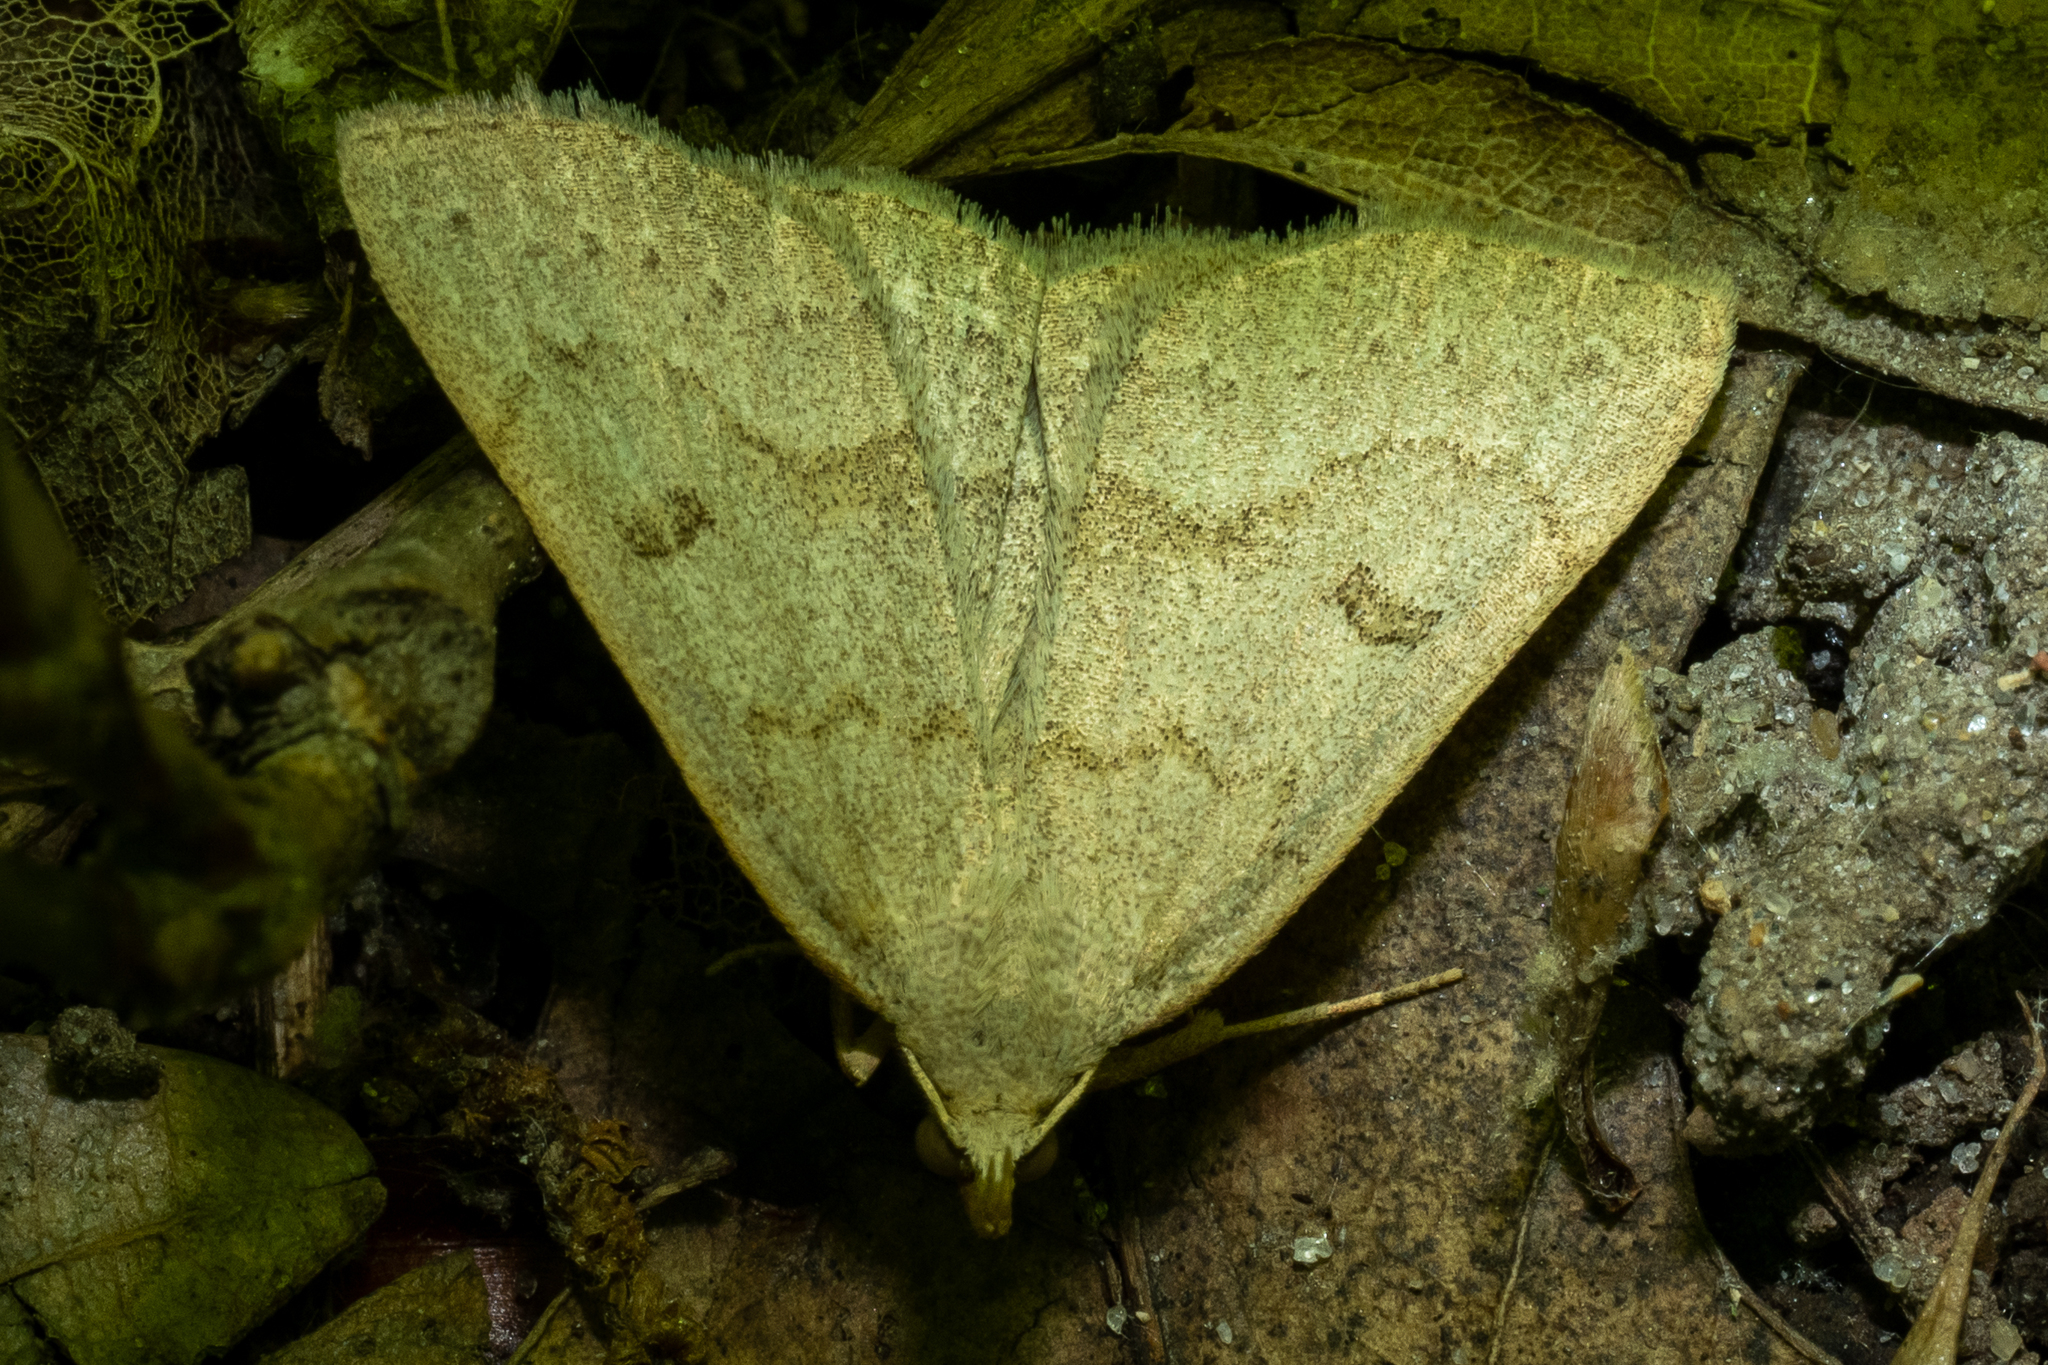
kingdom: Animalia
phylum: Arthropoda
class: Insecta
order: Lepidoptera
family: Erebidae
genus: Macrochilo
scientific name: Macrochilo morbidalis
